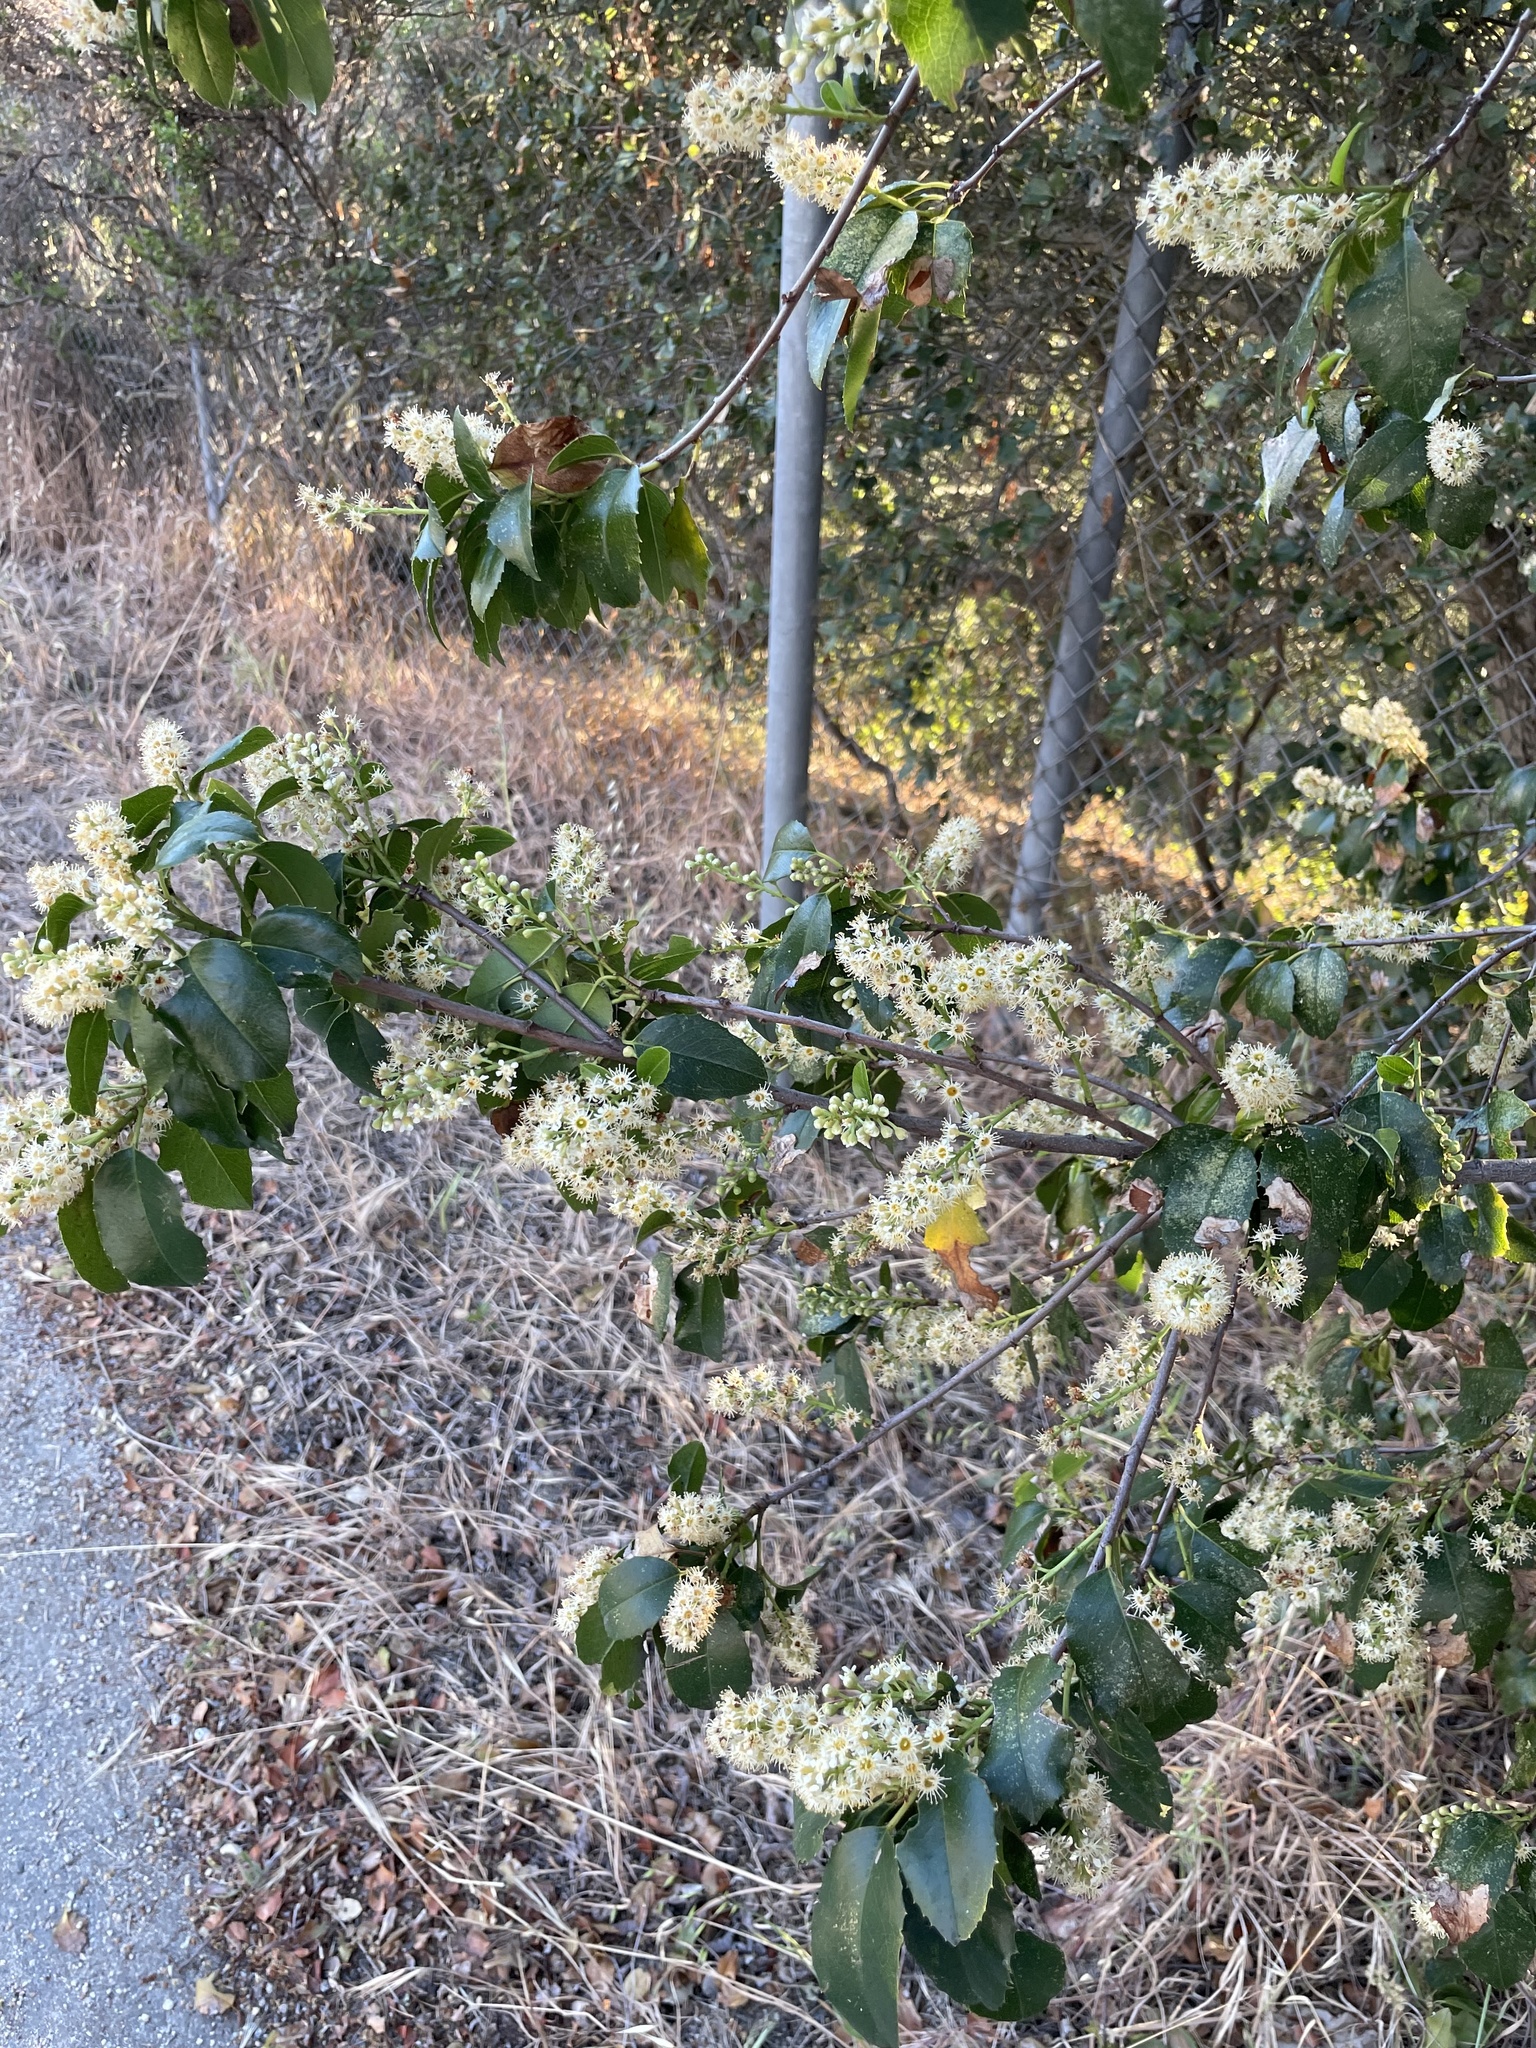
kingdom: Plantae
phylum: Tracheophyta
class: Magnoliopsida
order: Rosales
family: Rosaceae
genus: Prunus
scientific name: Prunus ilicifolia
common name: Hollyleaf cherry
